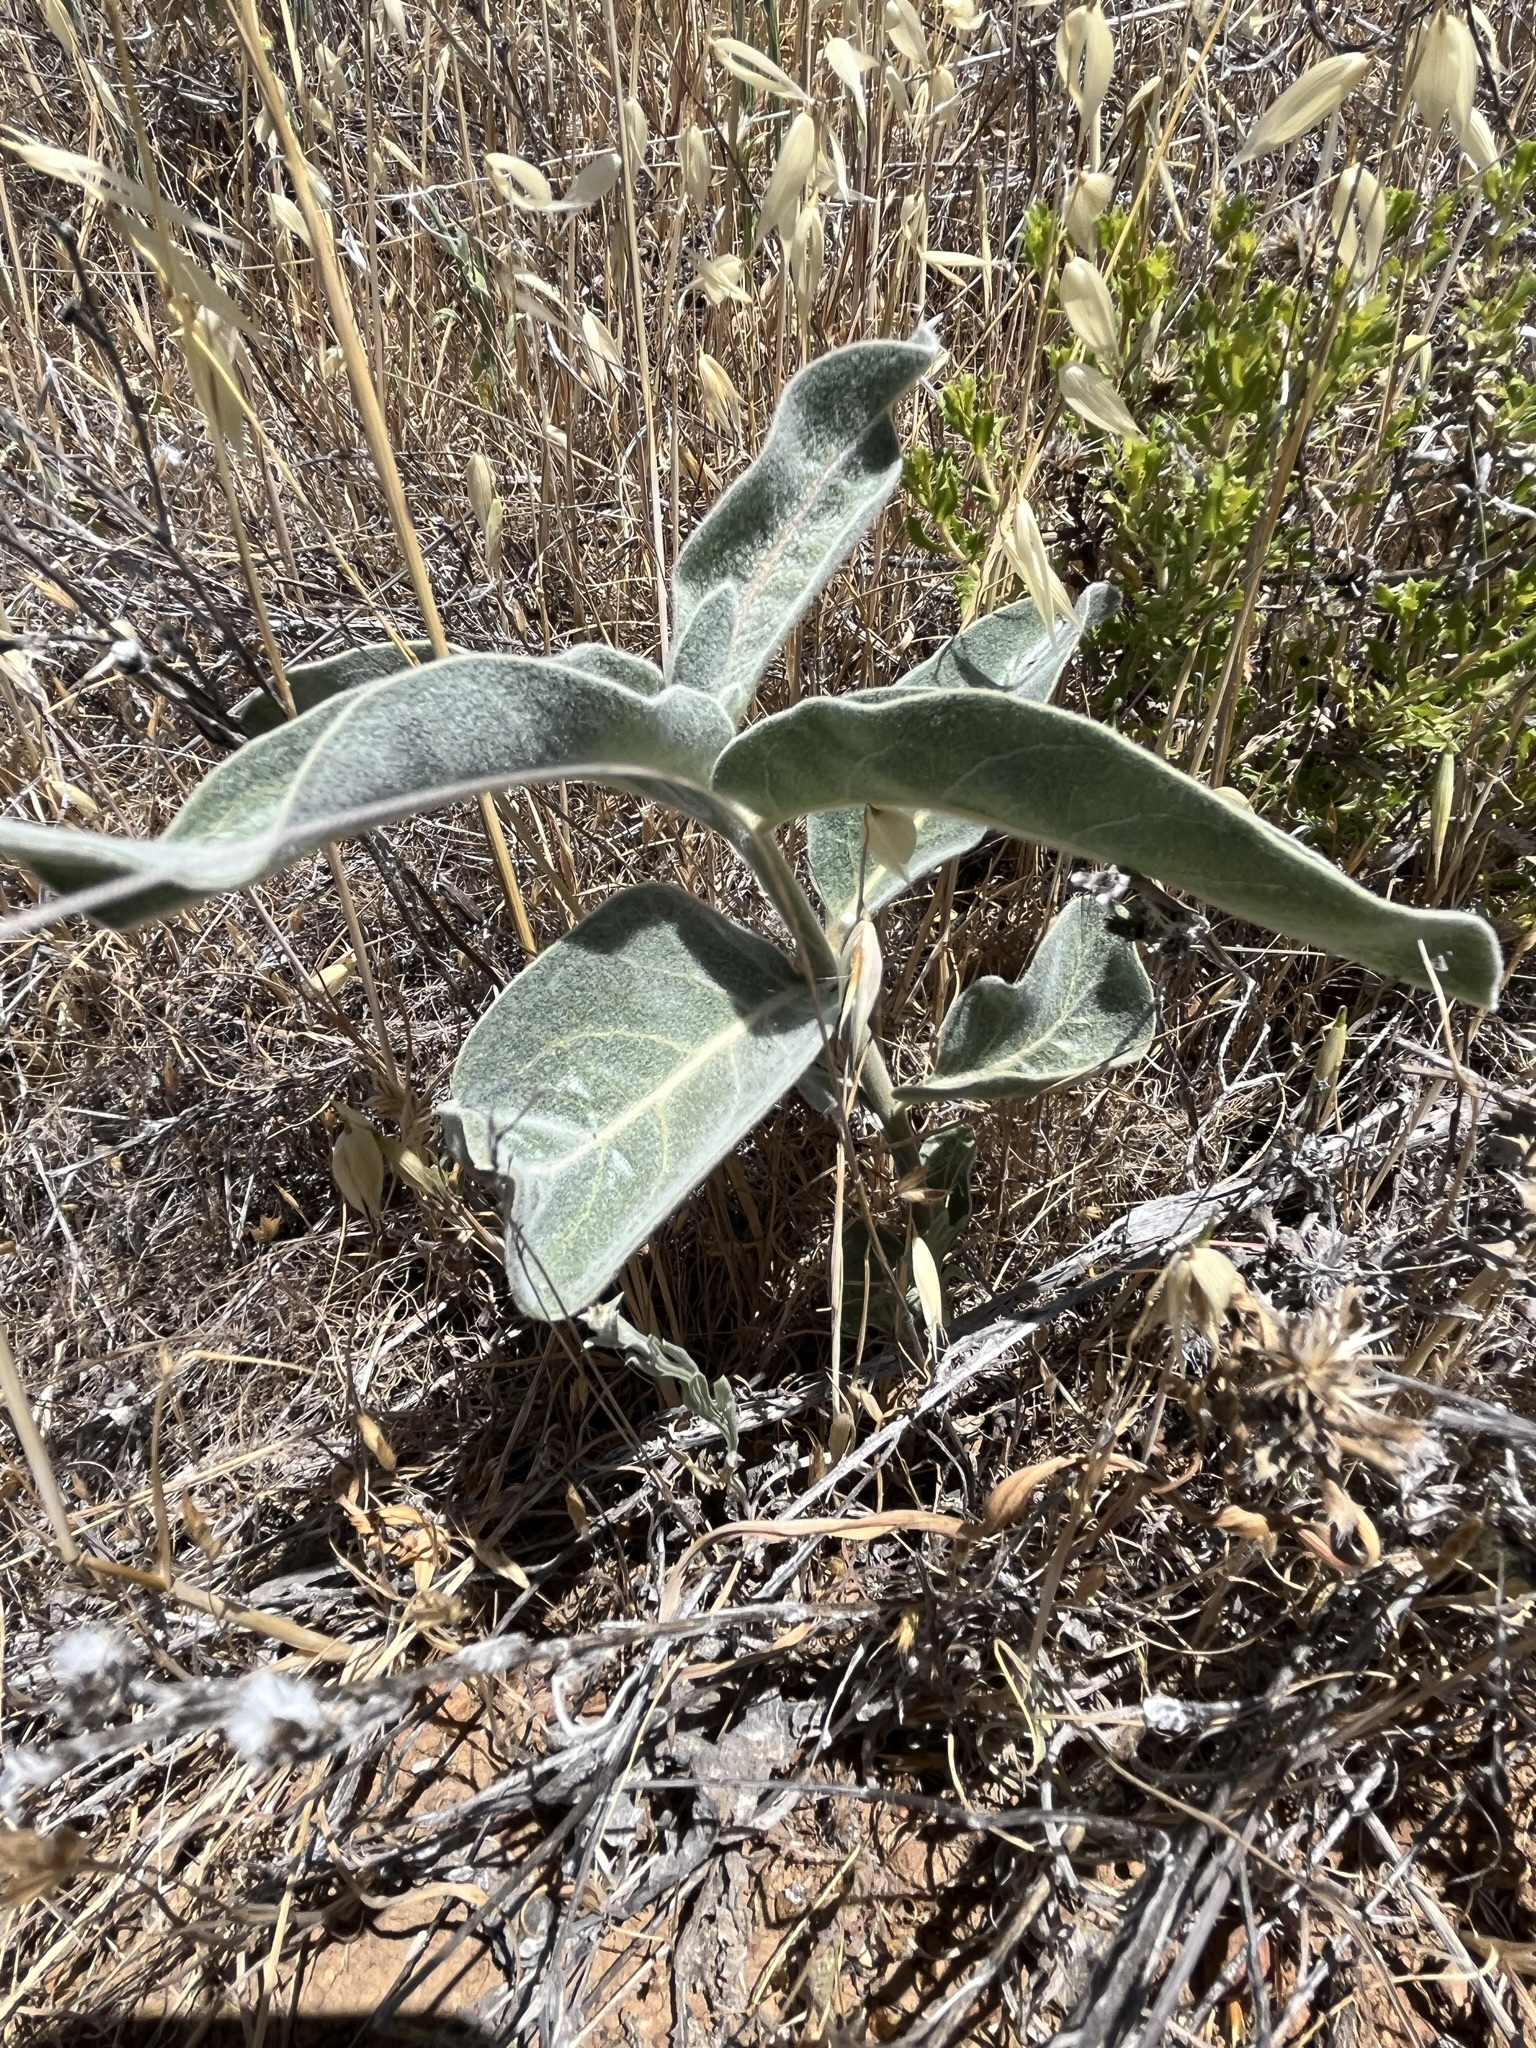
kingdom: Plantae
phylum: Tracheophyta
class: Magnoliopsida
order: Gentianales
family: Apocynaceae
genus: Asclepias
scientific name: Asclepias eriocarpa
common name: Indian milkweed
